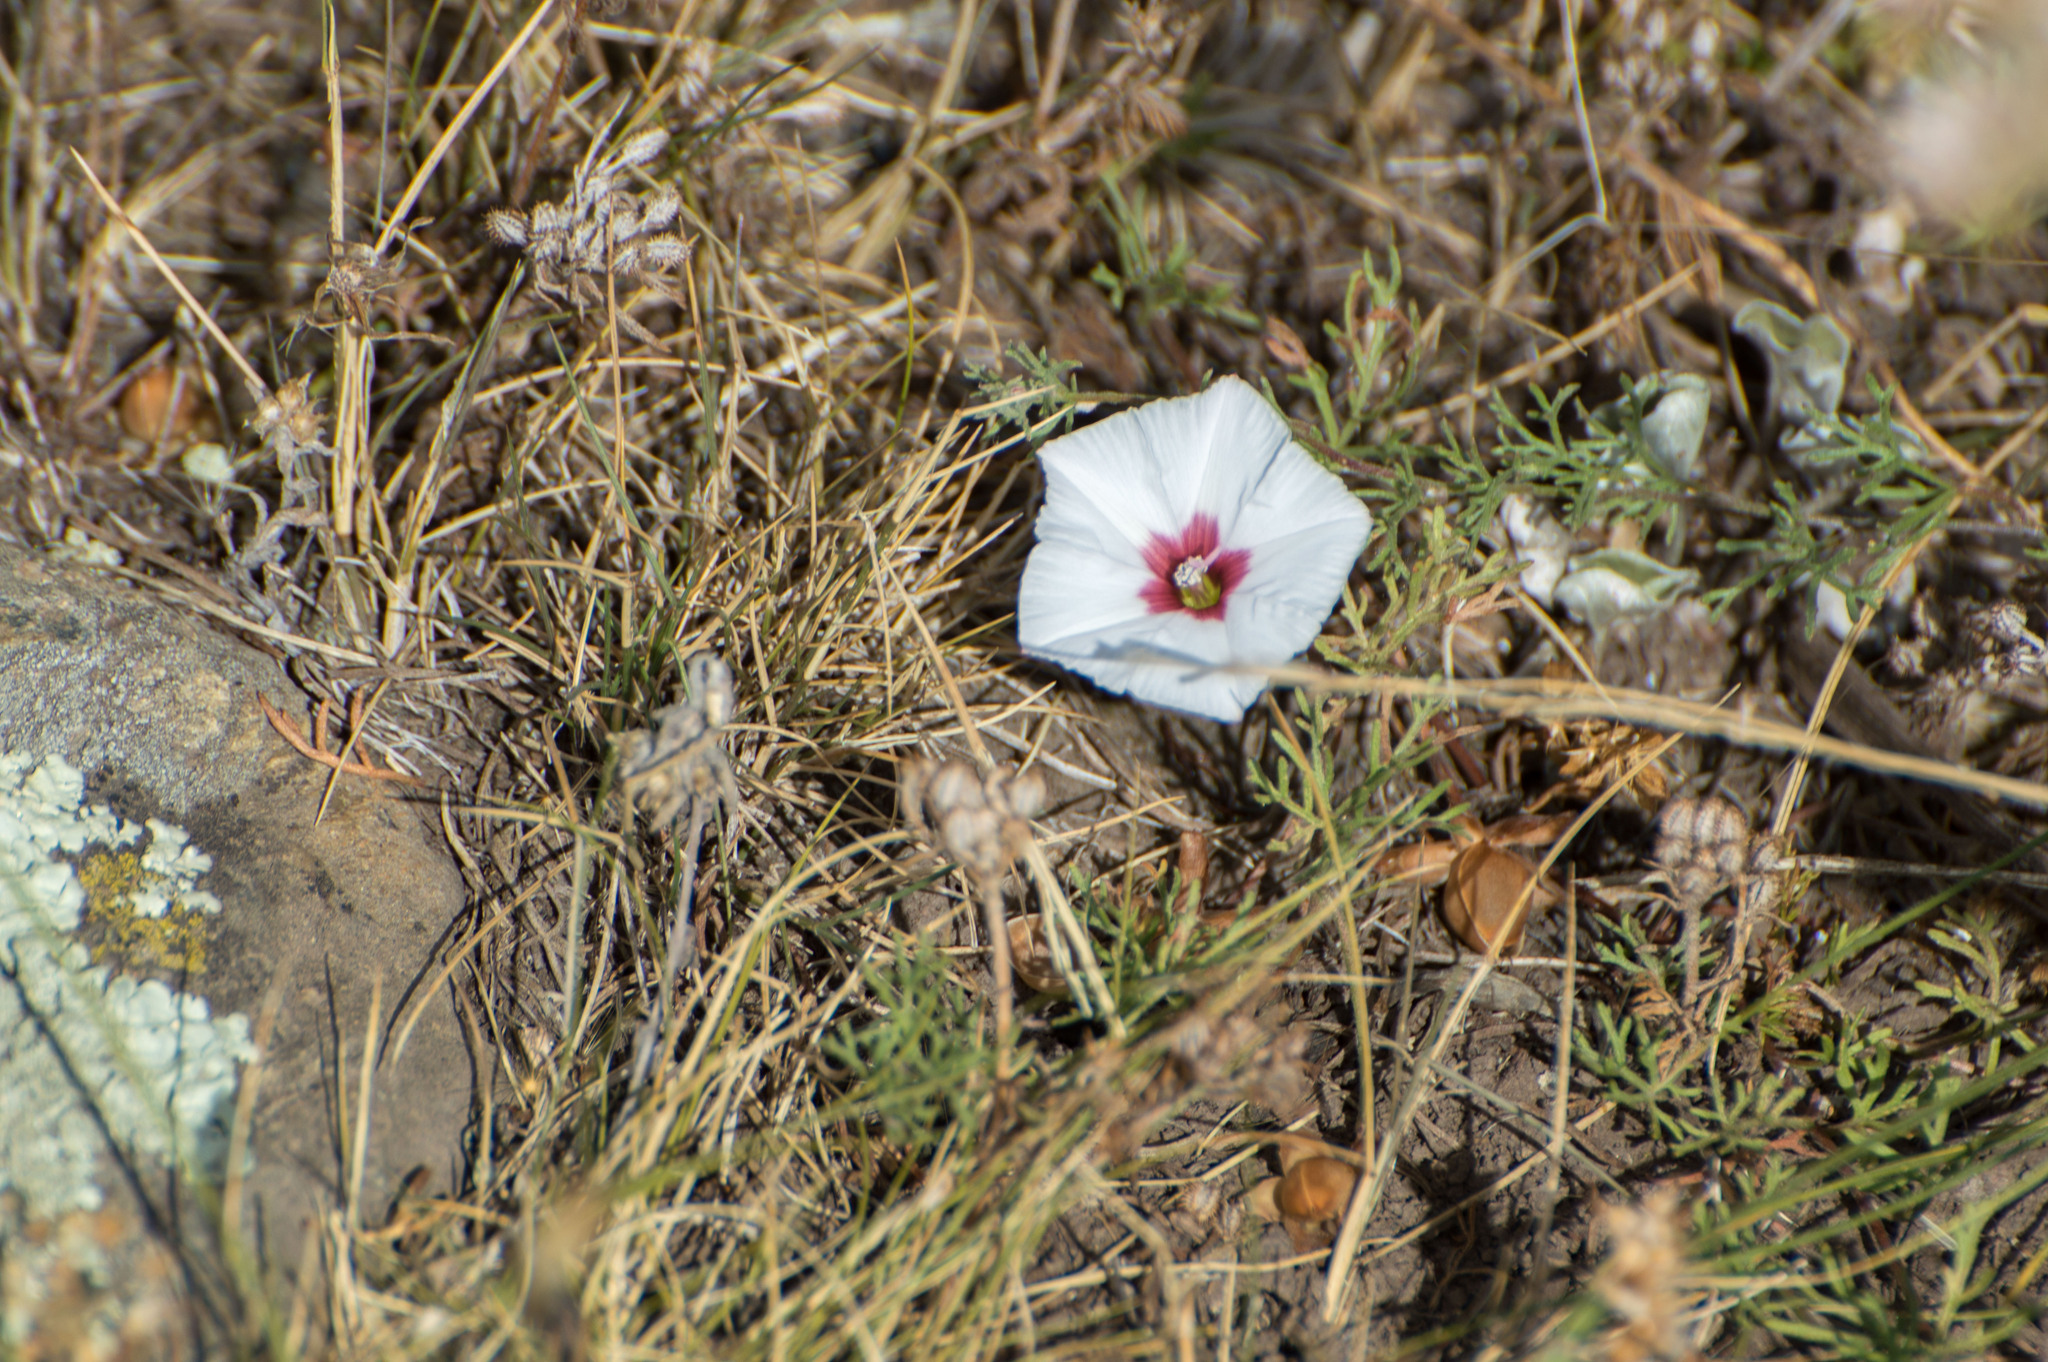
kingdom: Plantae
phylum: Tracheophyta
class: Magnoliopsida
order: Solanales
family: Convolvulaceae
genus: Convolvulus
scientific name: Convolvulus laciniatus
